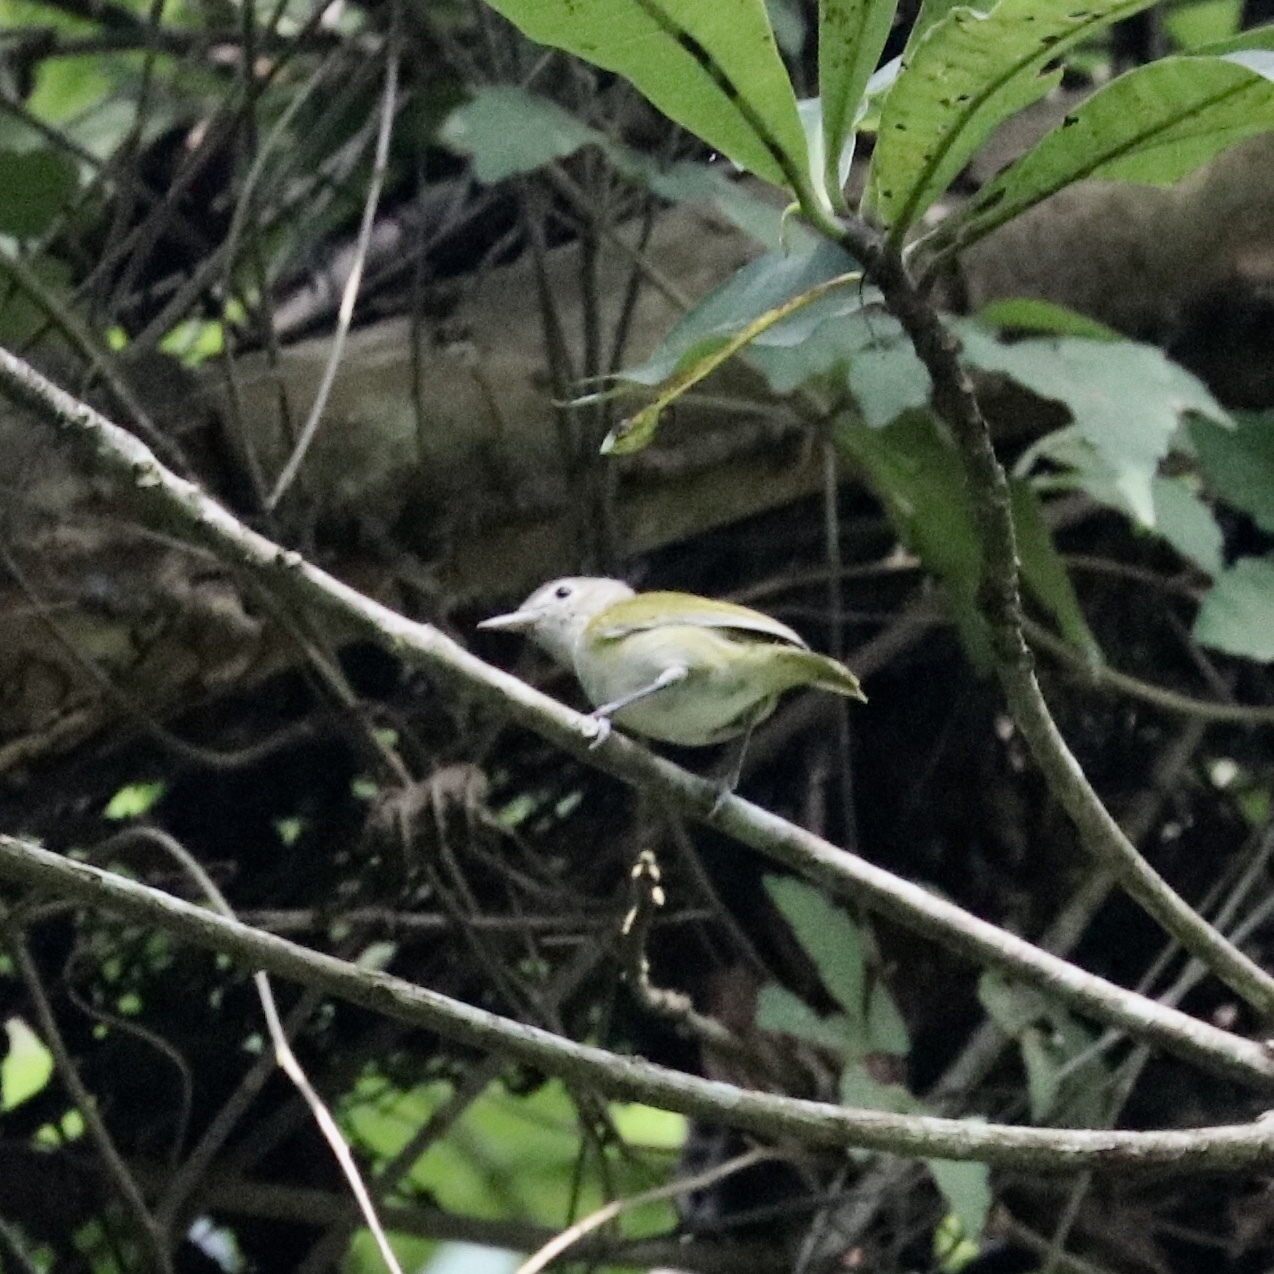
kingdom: Animalia
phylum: Chordata
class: Aves
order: Passeriformes
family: Vireonidae
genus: Hylophilus
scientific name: Hylophilus decurtatus
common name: Lesser greenlet
